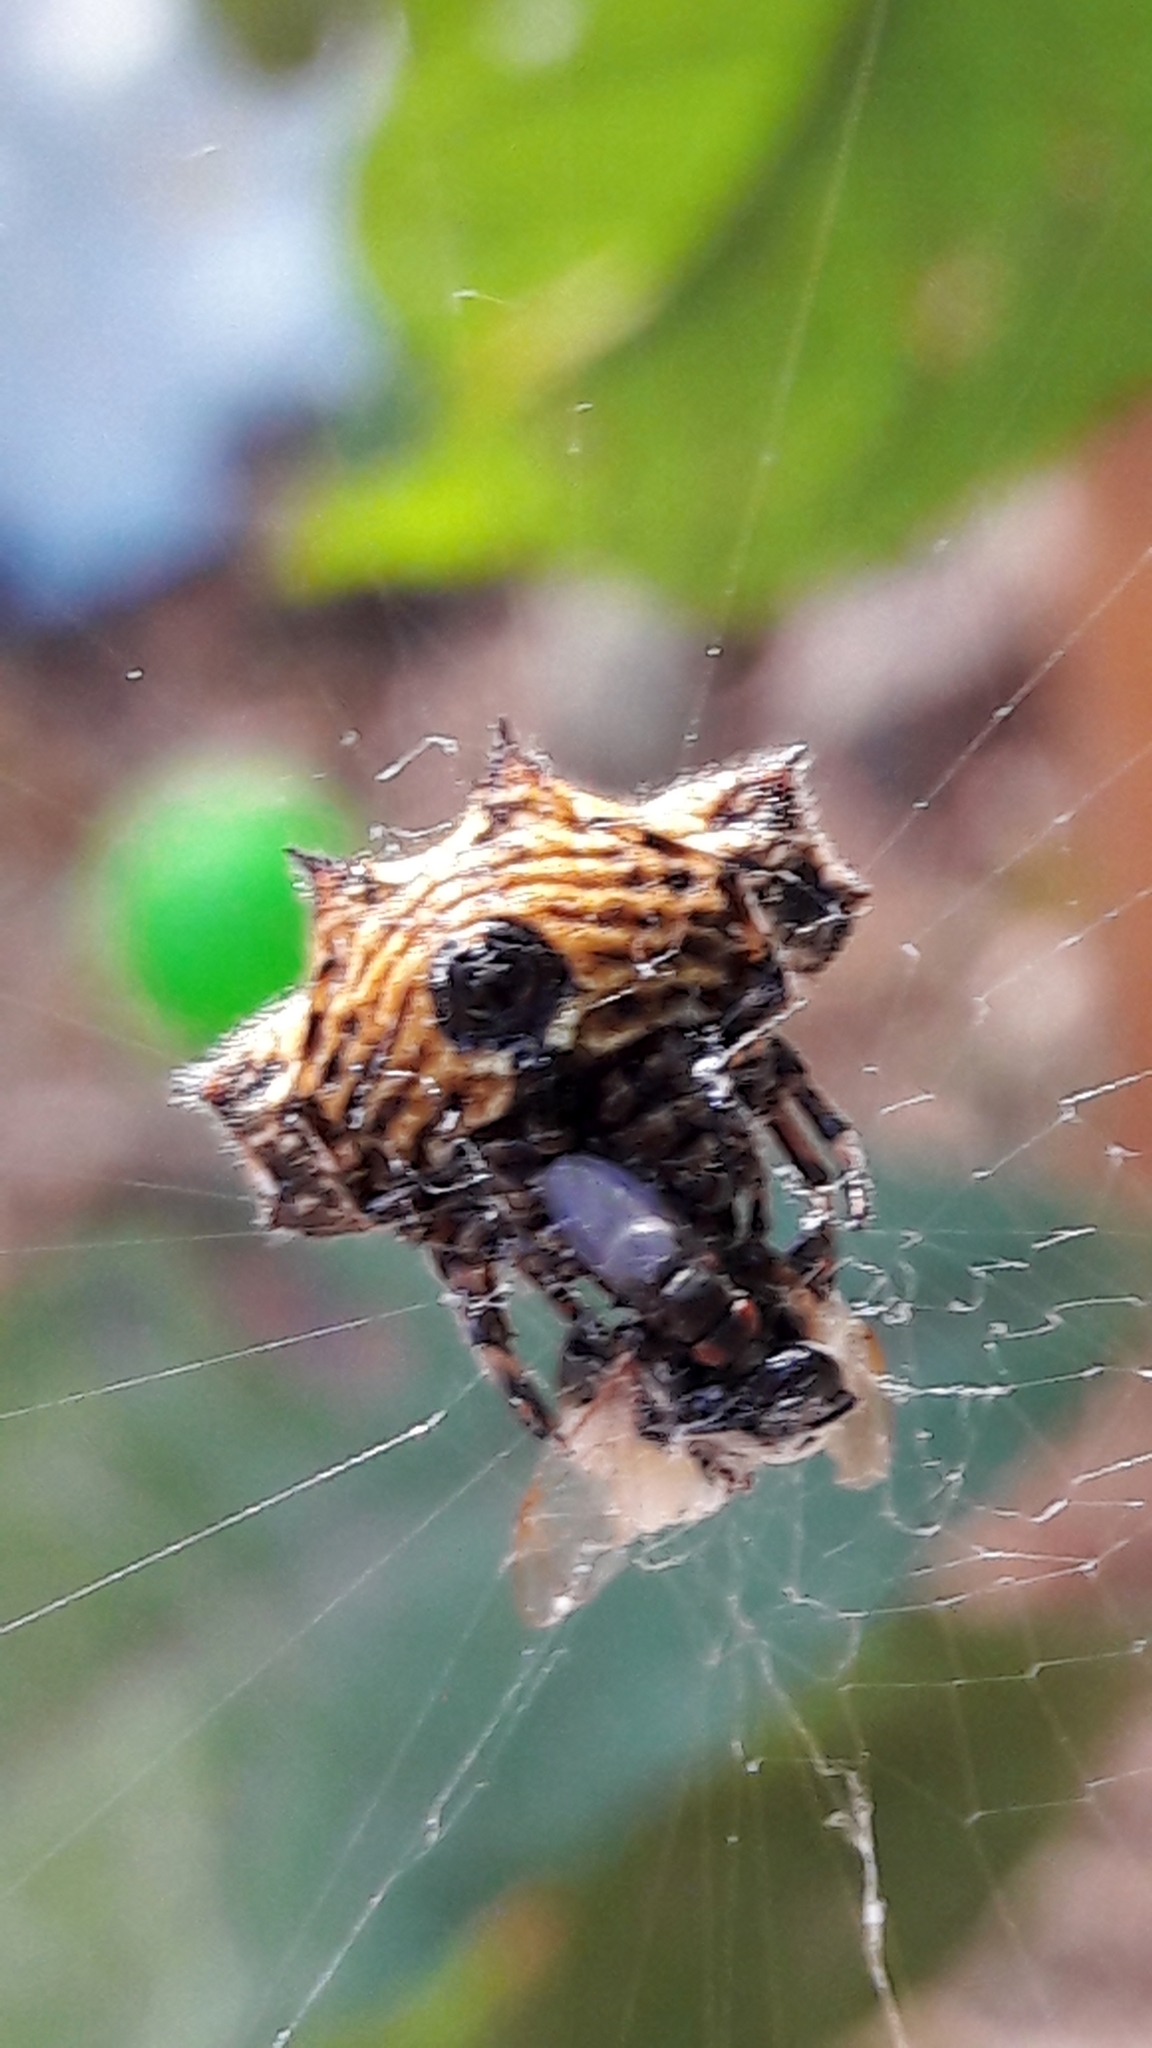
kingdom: Animalia
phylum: Arthropoda
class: Arachnida
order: Araneae
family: Araneidae
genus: Gasteracantha
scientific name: Gasteracantha cancriformis
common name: Orb weavers
